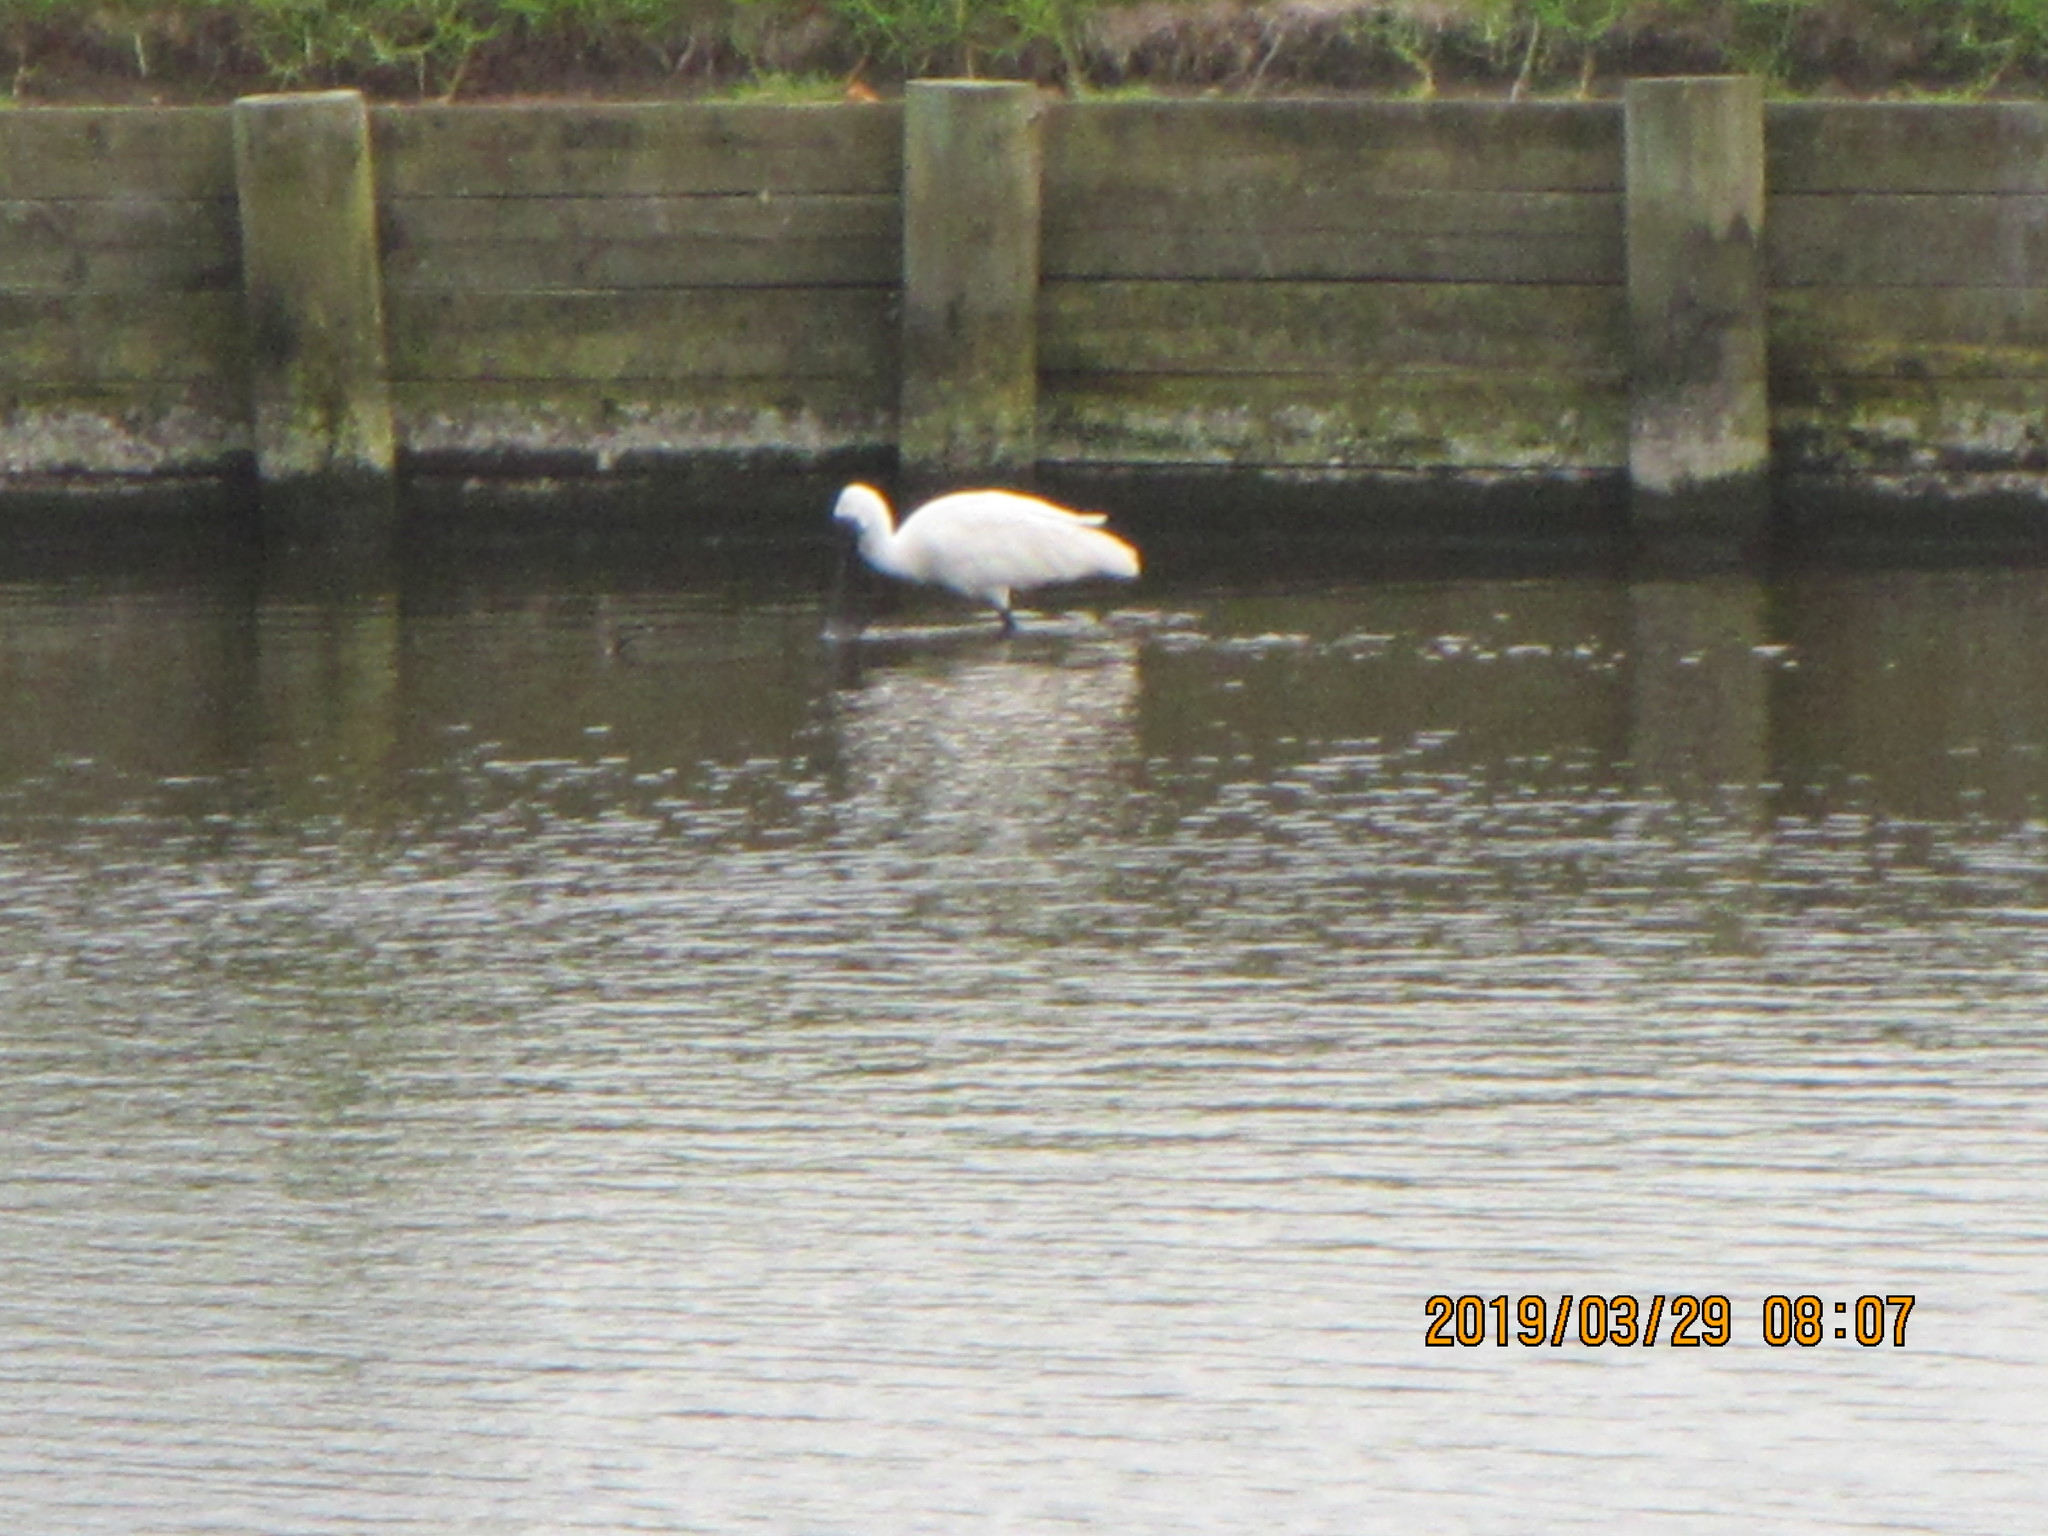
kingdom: Animalia
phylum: Chordata
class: Aves
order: Pelecaniformes
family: Threskiornithidae
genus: Platalea
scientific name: Platalea regia
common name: Royal spoonbill
